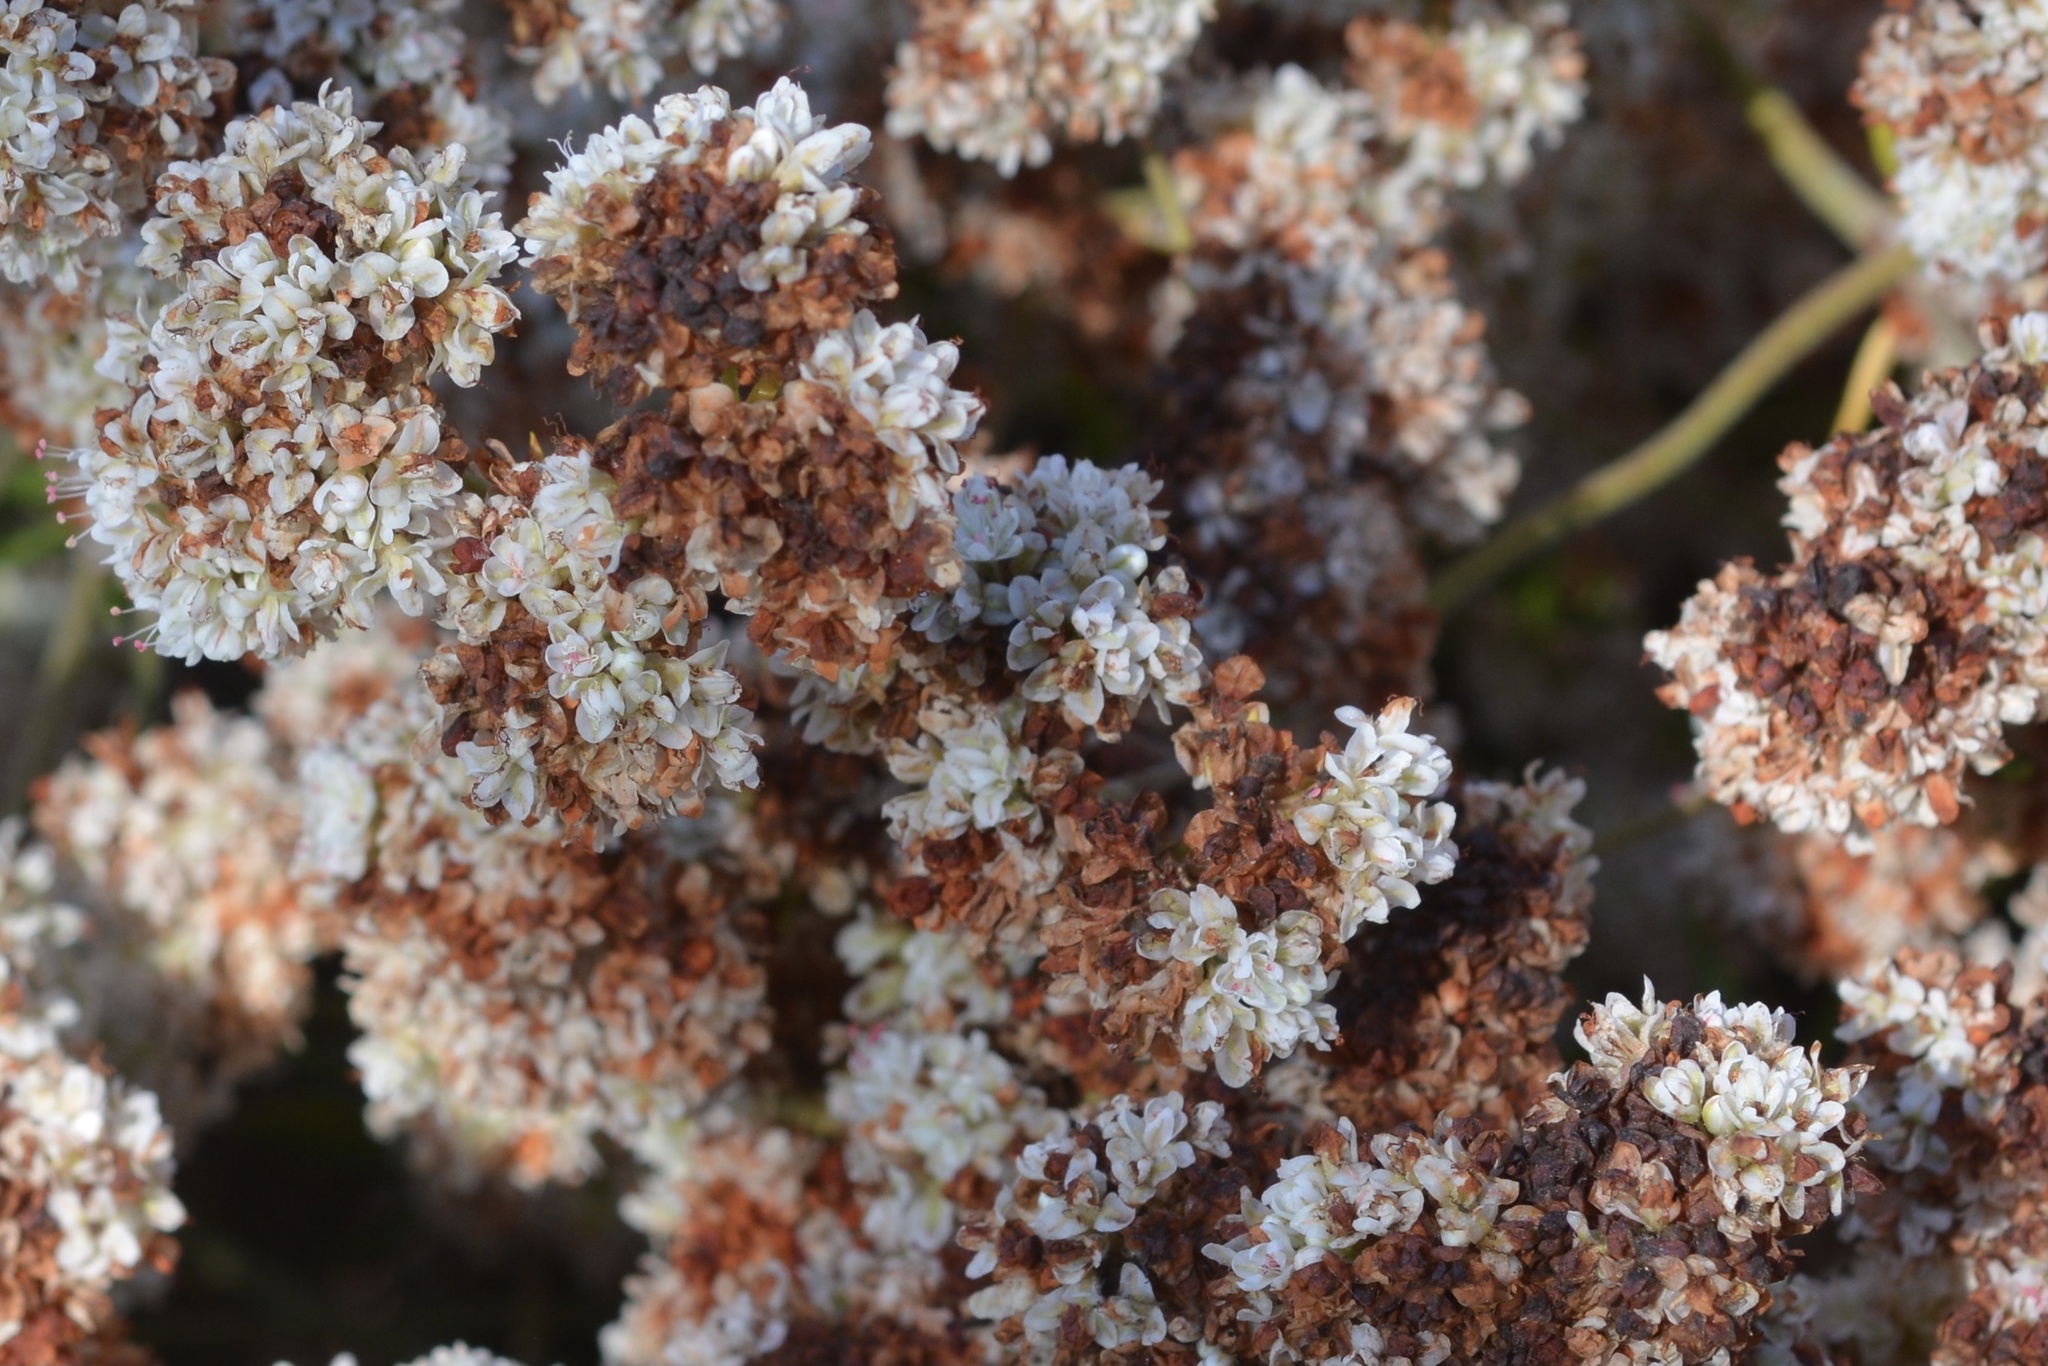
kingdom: Plantae
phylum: Tracheophyta
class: Magnoliopsida
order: Caryophyllales
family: Polygonaceae
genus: Eriogonum
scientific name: Eriogonum fasciculatum
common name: California wild buckwheat
